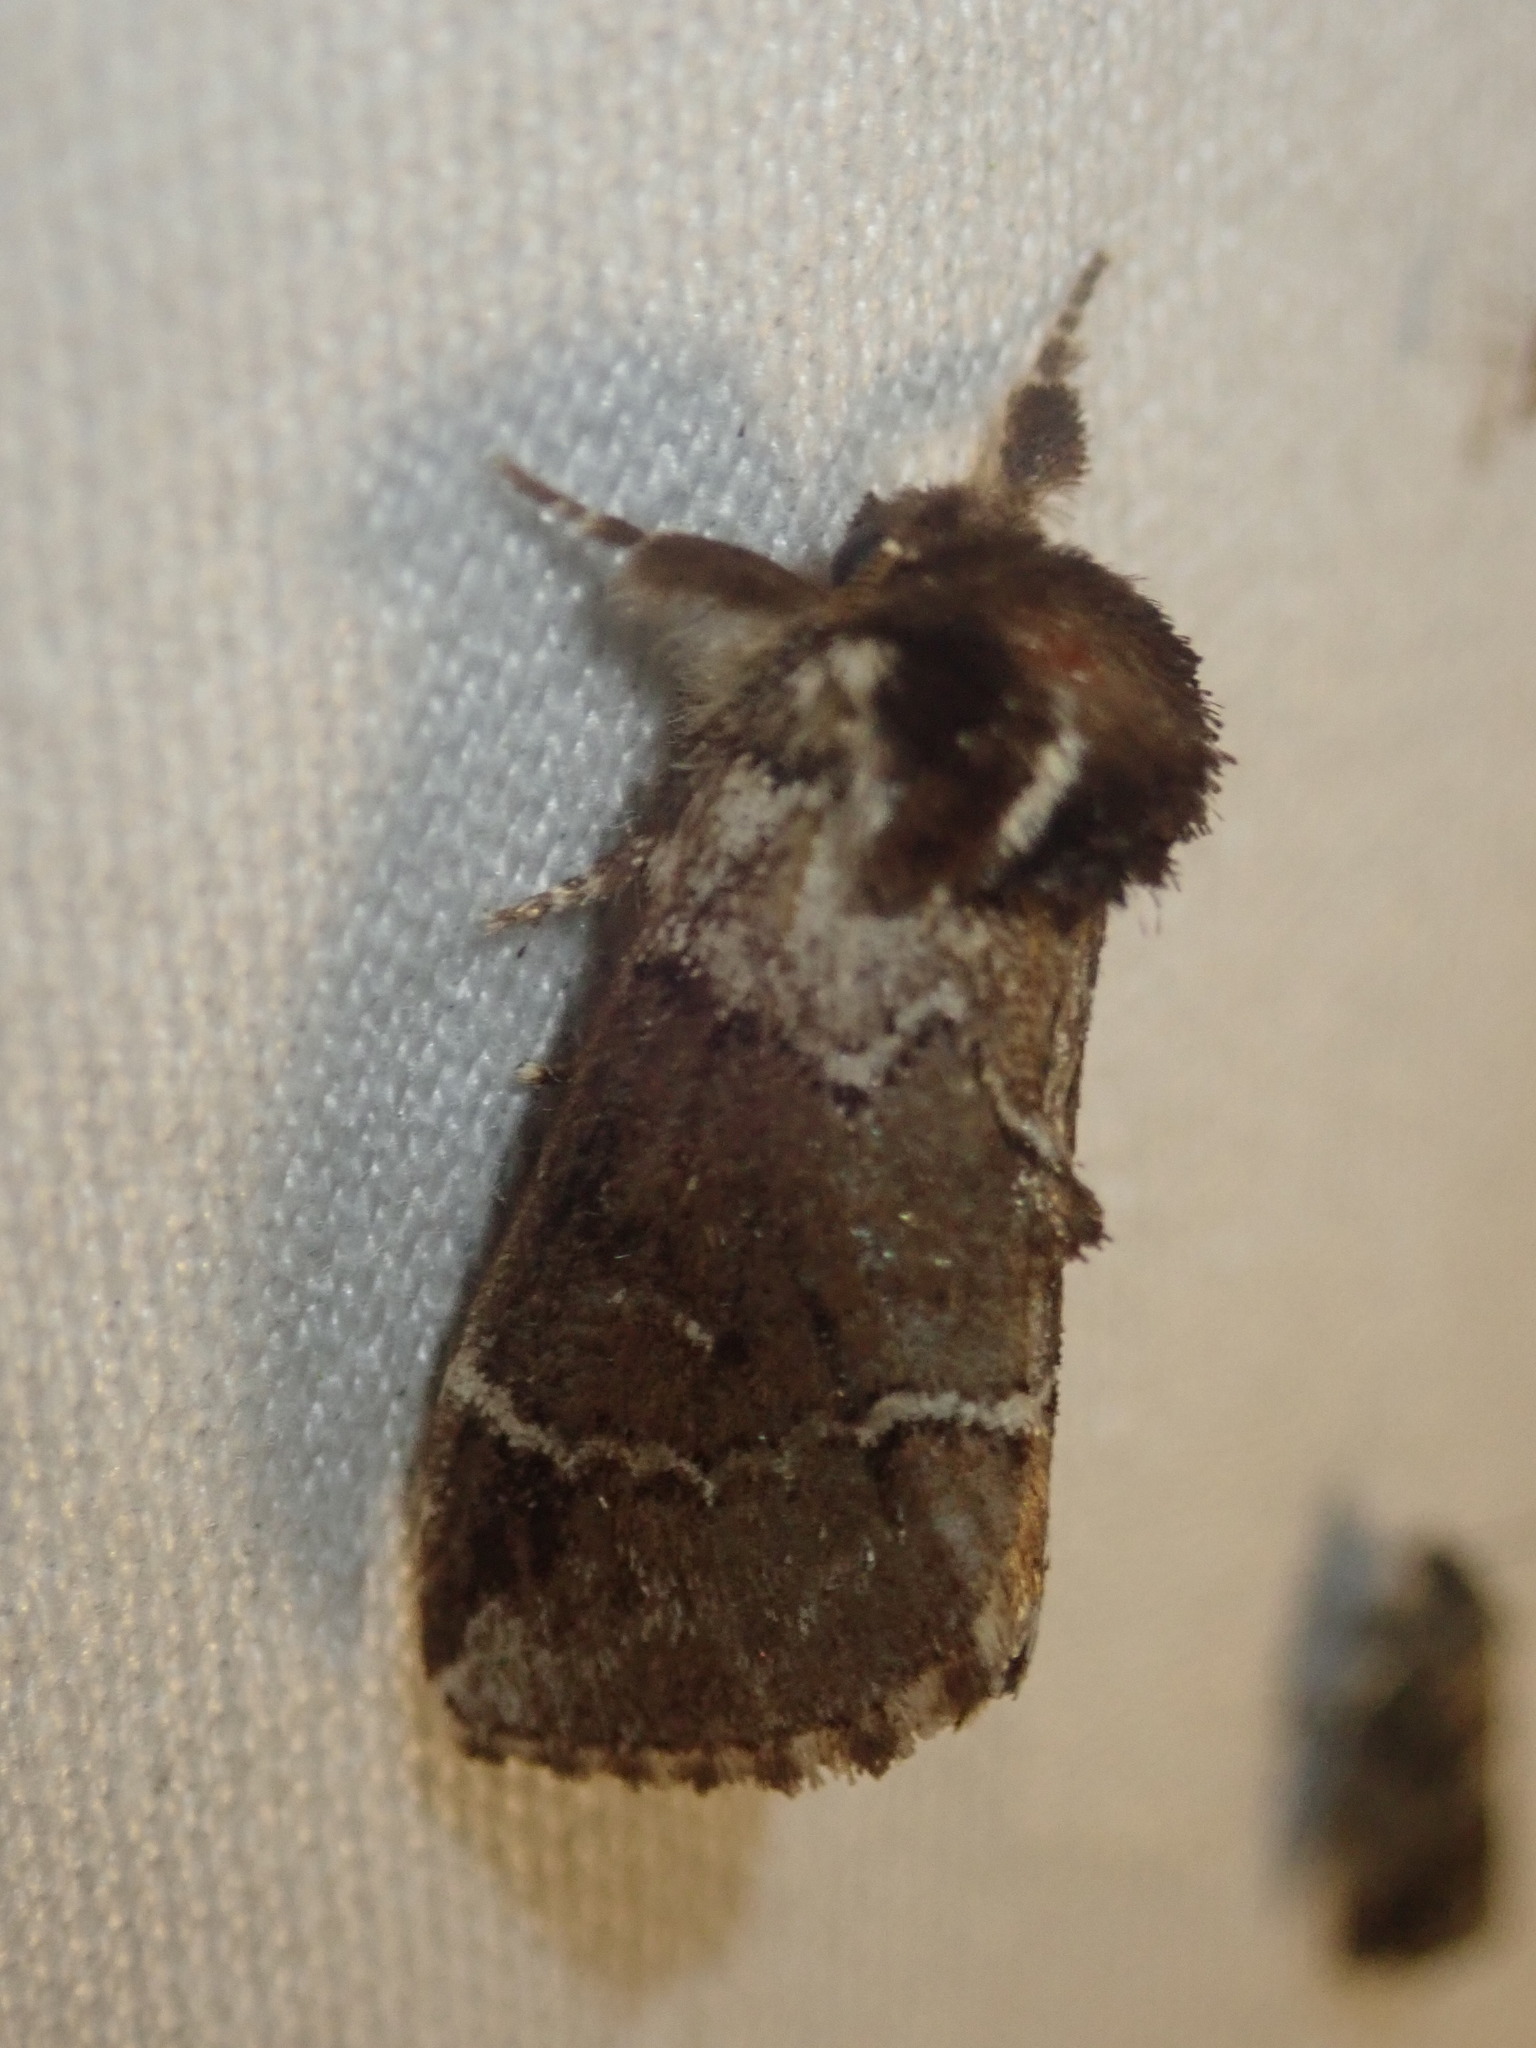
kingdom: Animalia
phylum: Arthropoda
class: Insecta
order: Lepidoptera
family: Notodontidae
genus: Drymonia
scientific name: Drymonia obliterata
